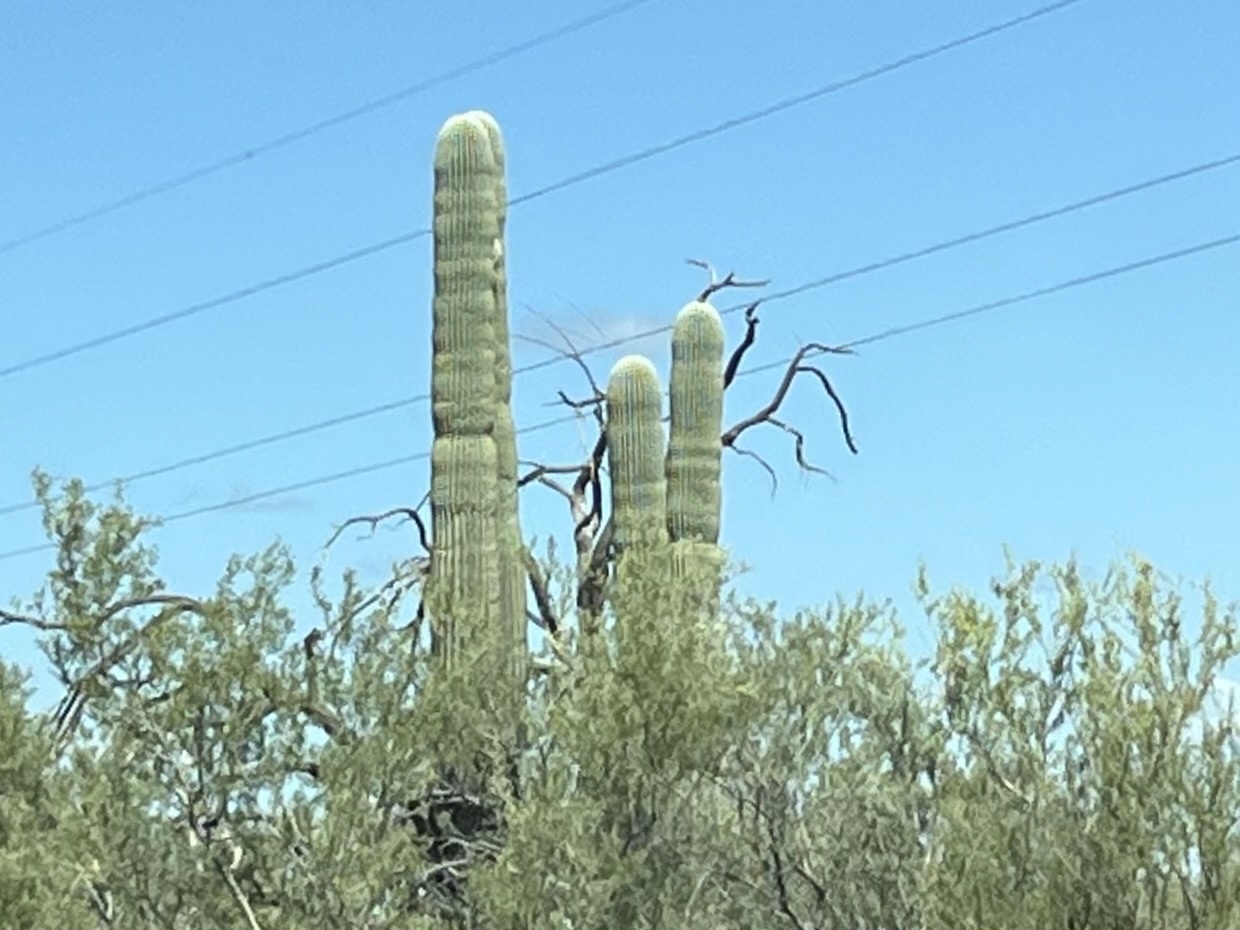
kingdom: Plantae
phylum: Tracheophyta
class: Magnoliopsida
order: Caryophyllales
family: Cactaceae
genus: Carnegiea
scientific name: Carnegiea gigantea
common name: Saguaro
